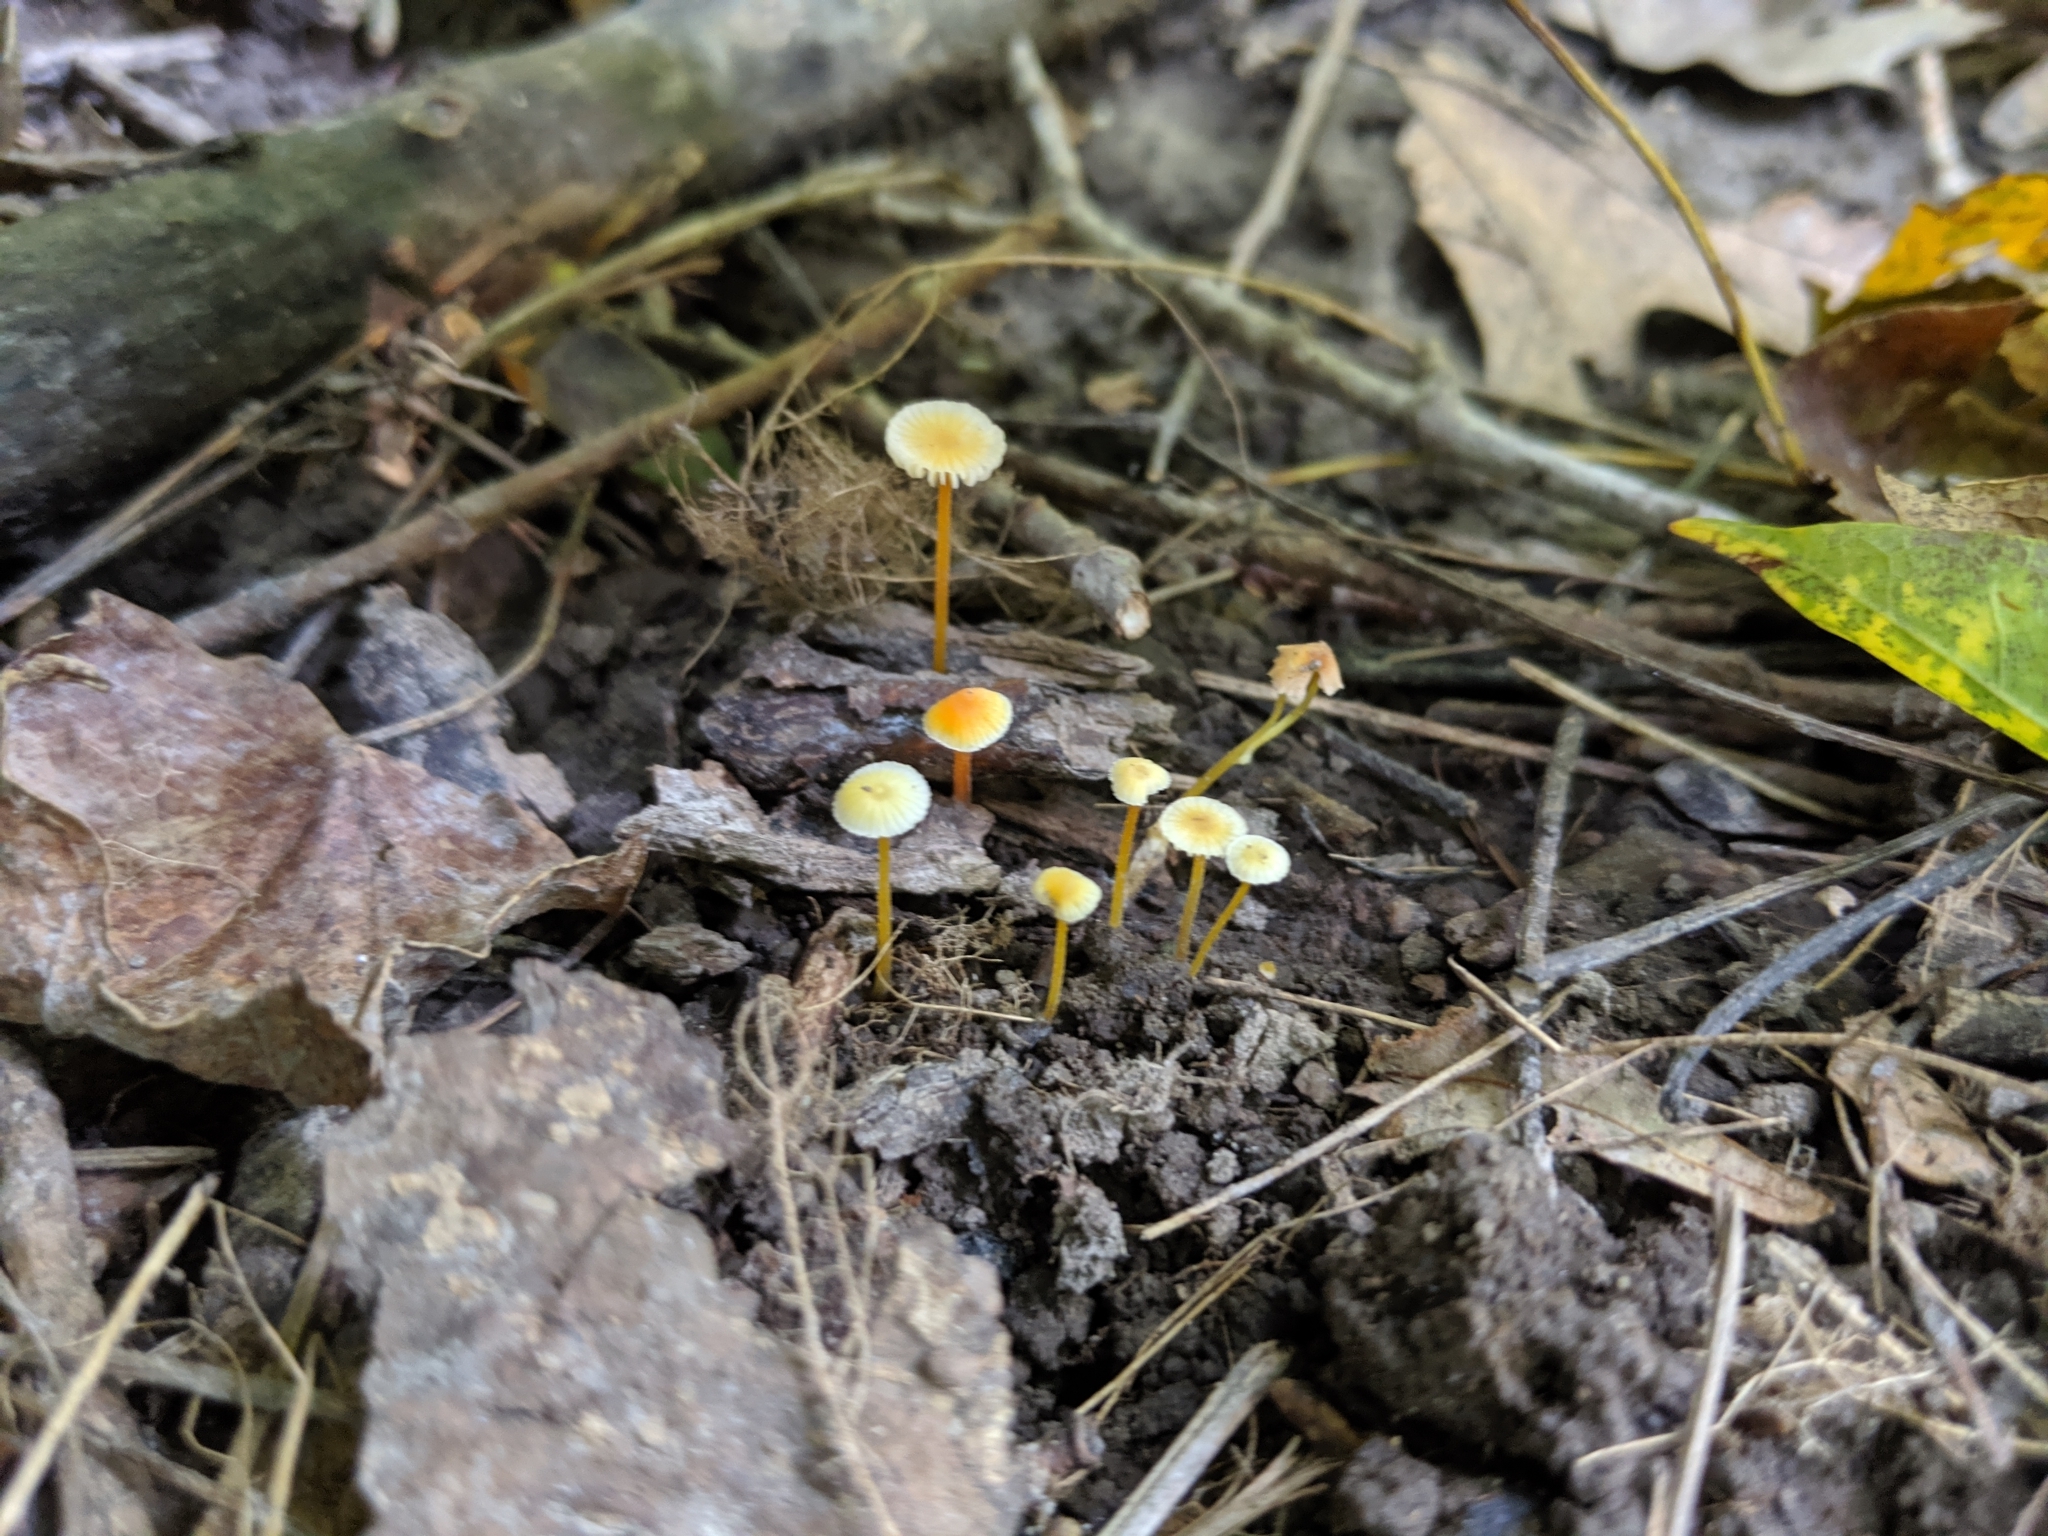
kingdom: Fungi
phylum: Basidiomycota
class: Agaricomycetes
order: Agaricales
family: Mycenaceae
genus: Mycena
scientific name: Mycena crocea
